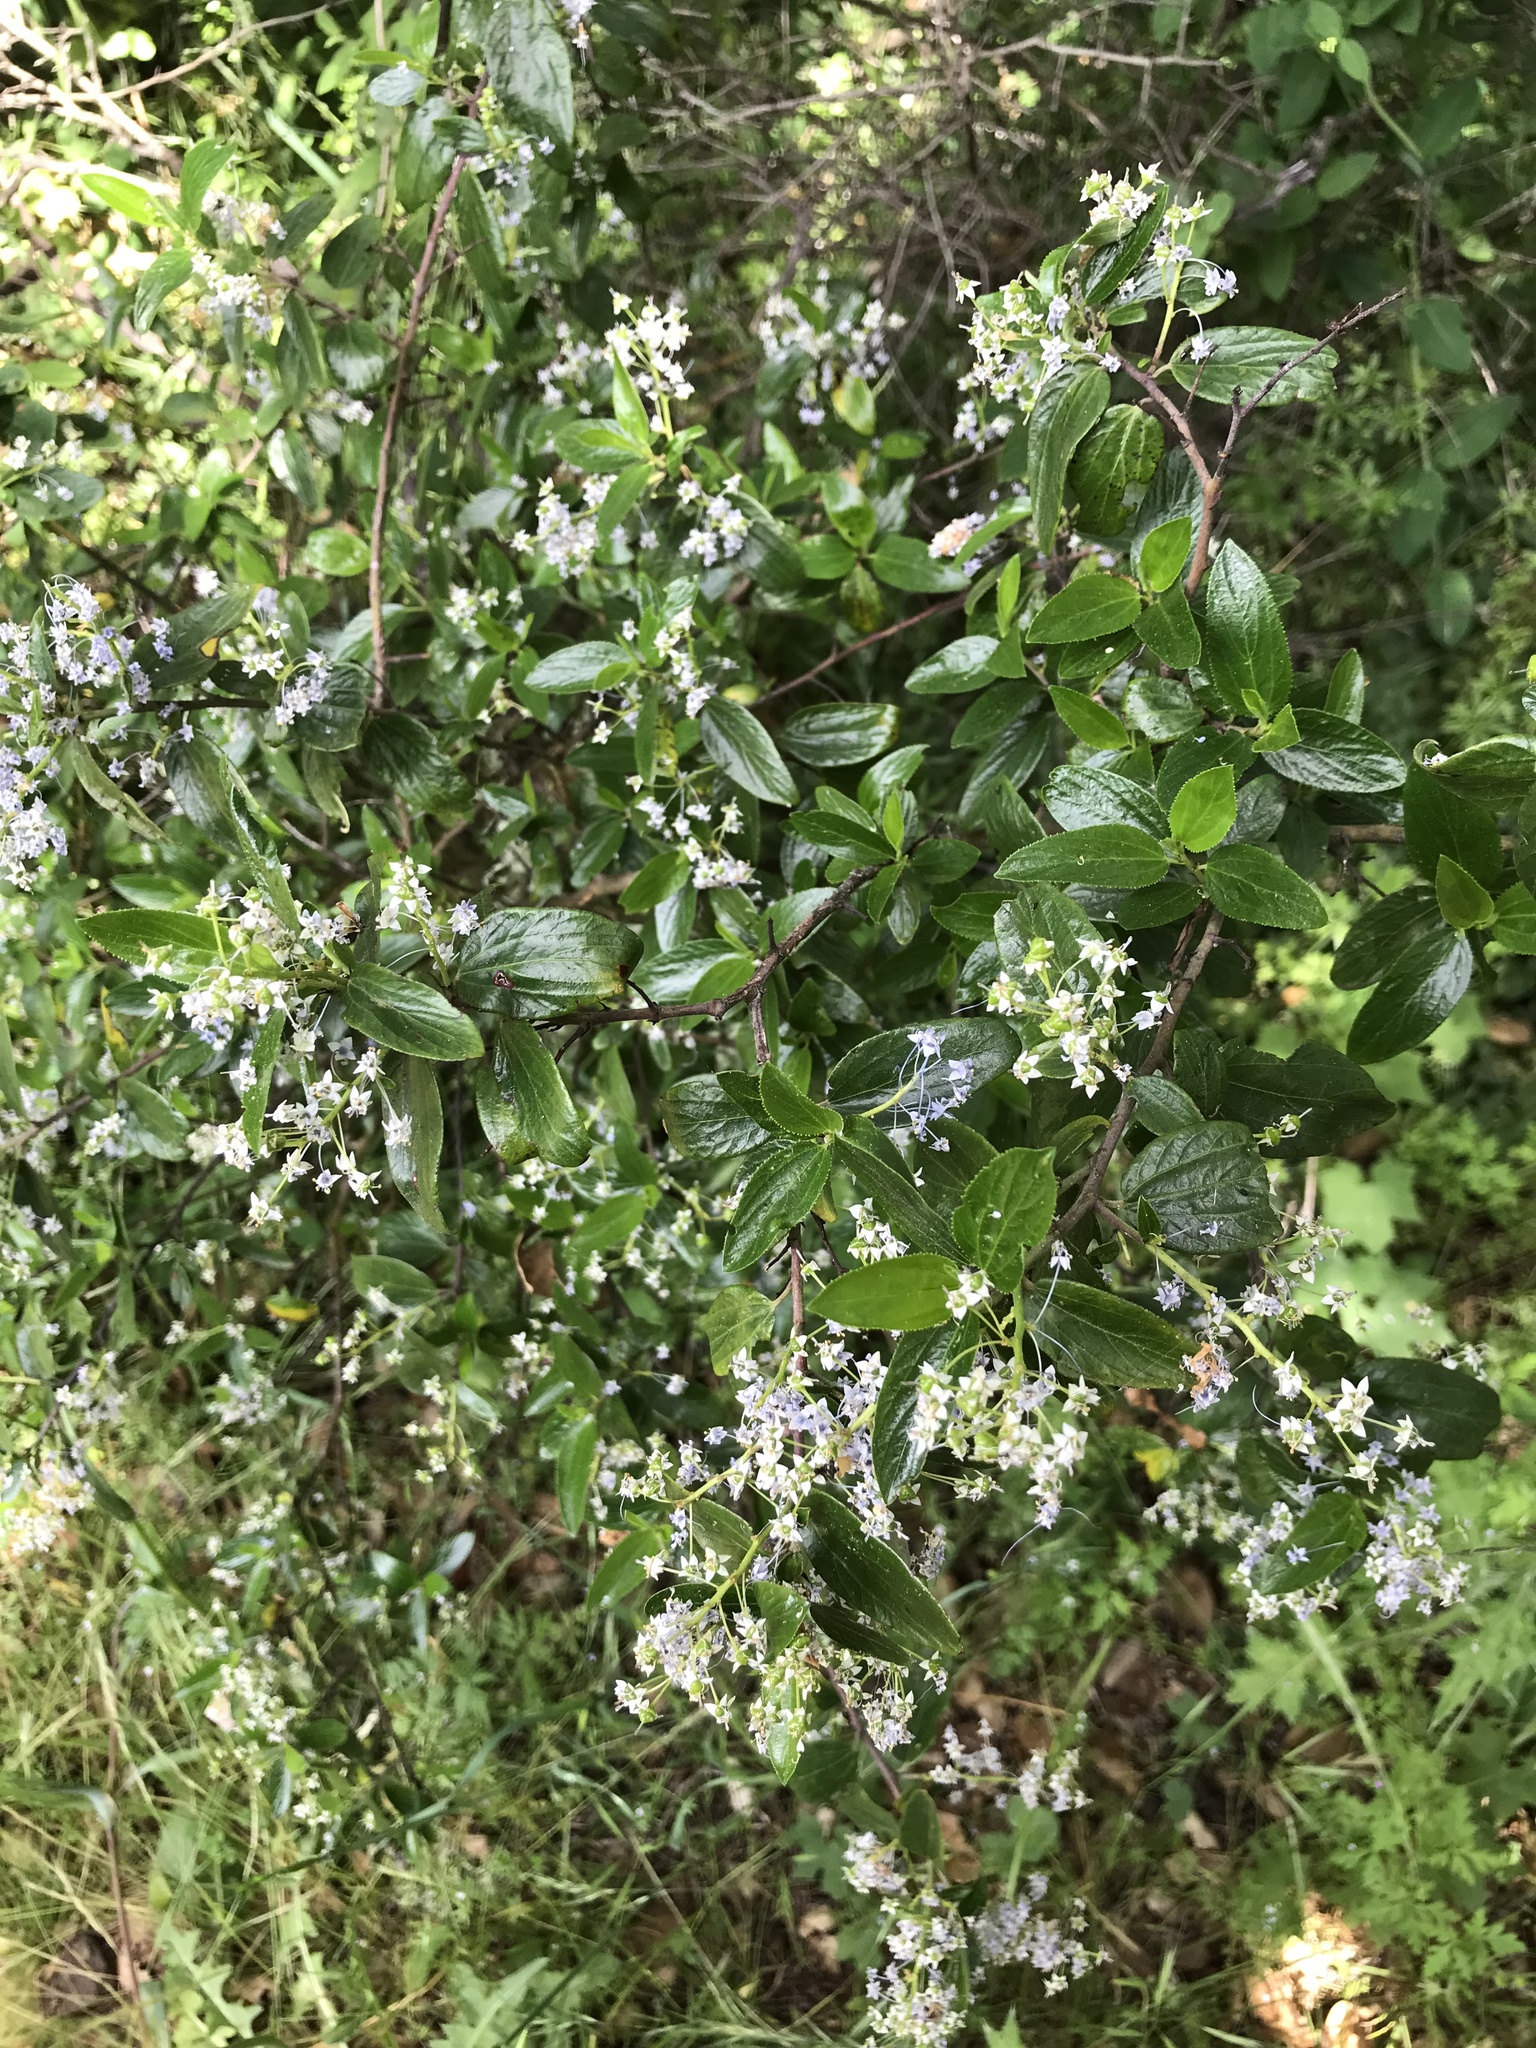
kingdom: Plantae
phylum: Tracheophyta
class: Magnoliopsida
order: Rosales
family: Rhamnaceae
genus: Ceanothus
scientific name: Ceanothus oliganthus
